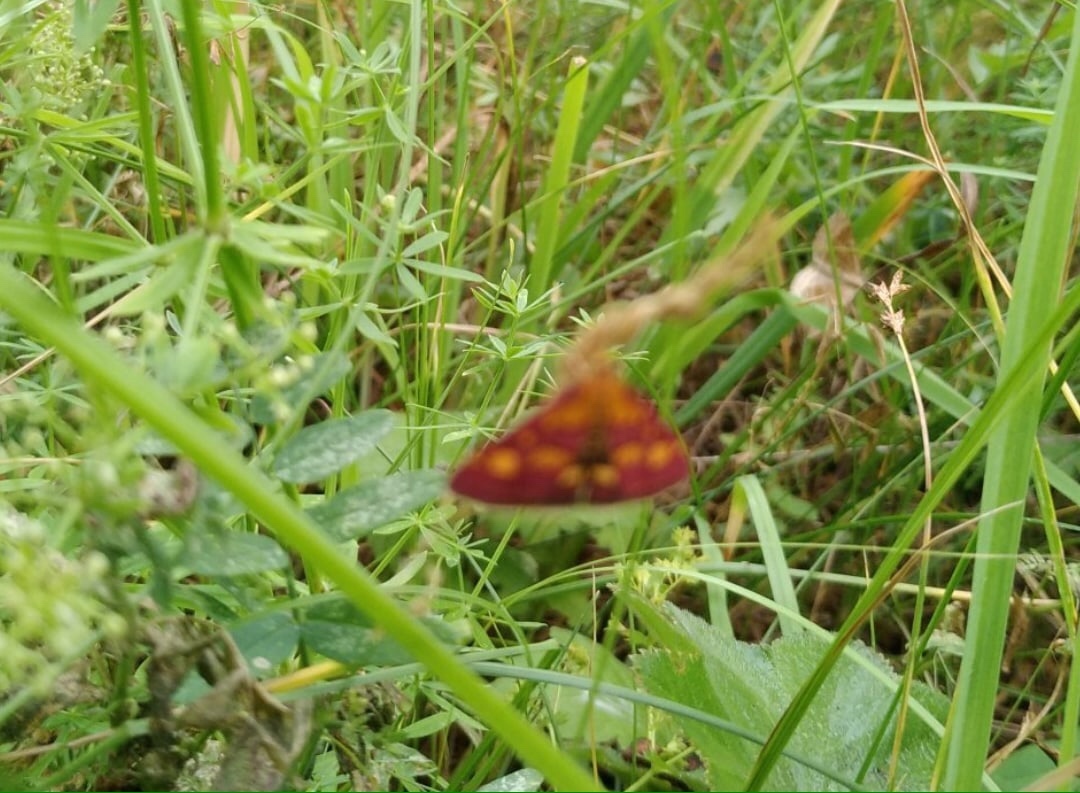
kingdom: Animalia
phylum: Arthropoda
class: Insecta
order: Lepidoptera
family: Crambidae
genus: Pyrausta
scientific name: Pyrausta purpuralis
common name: Common purple & gold
